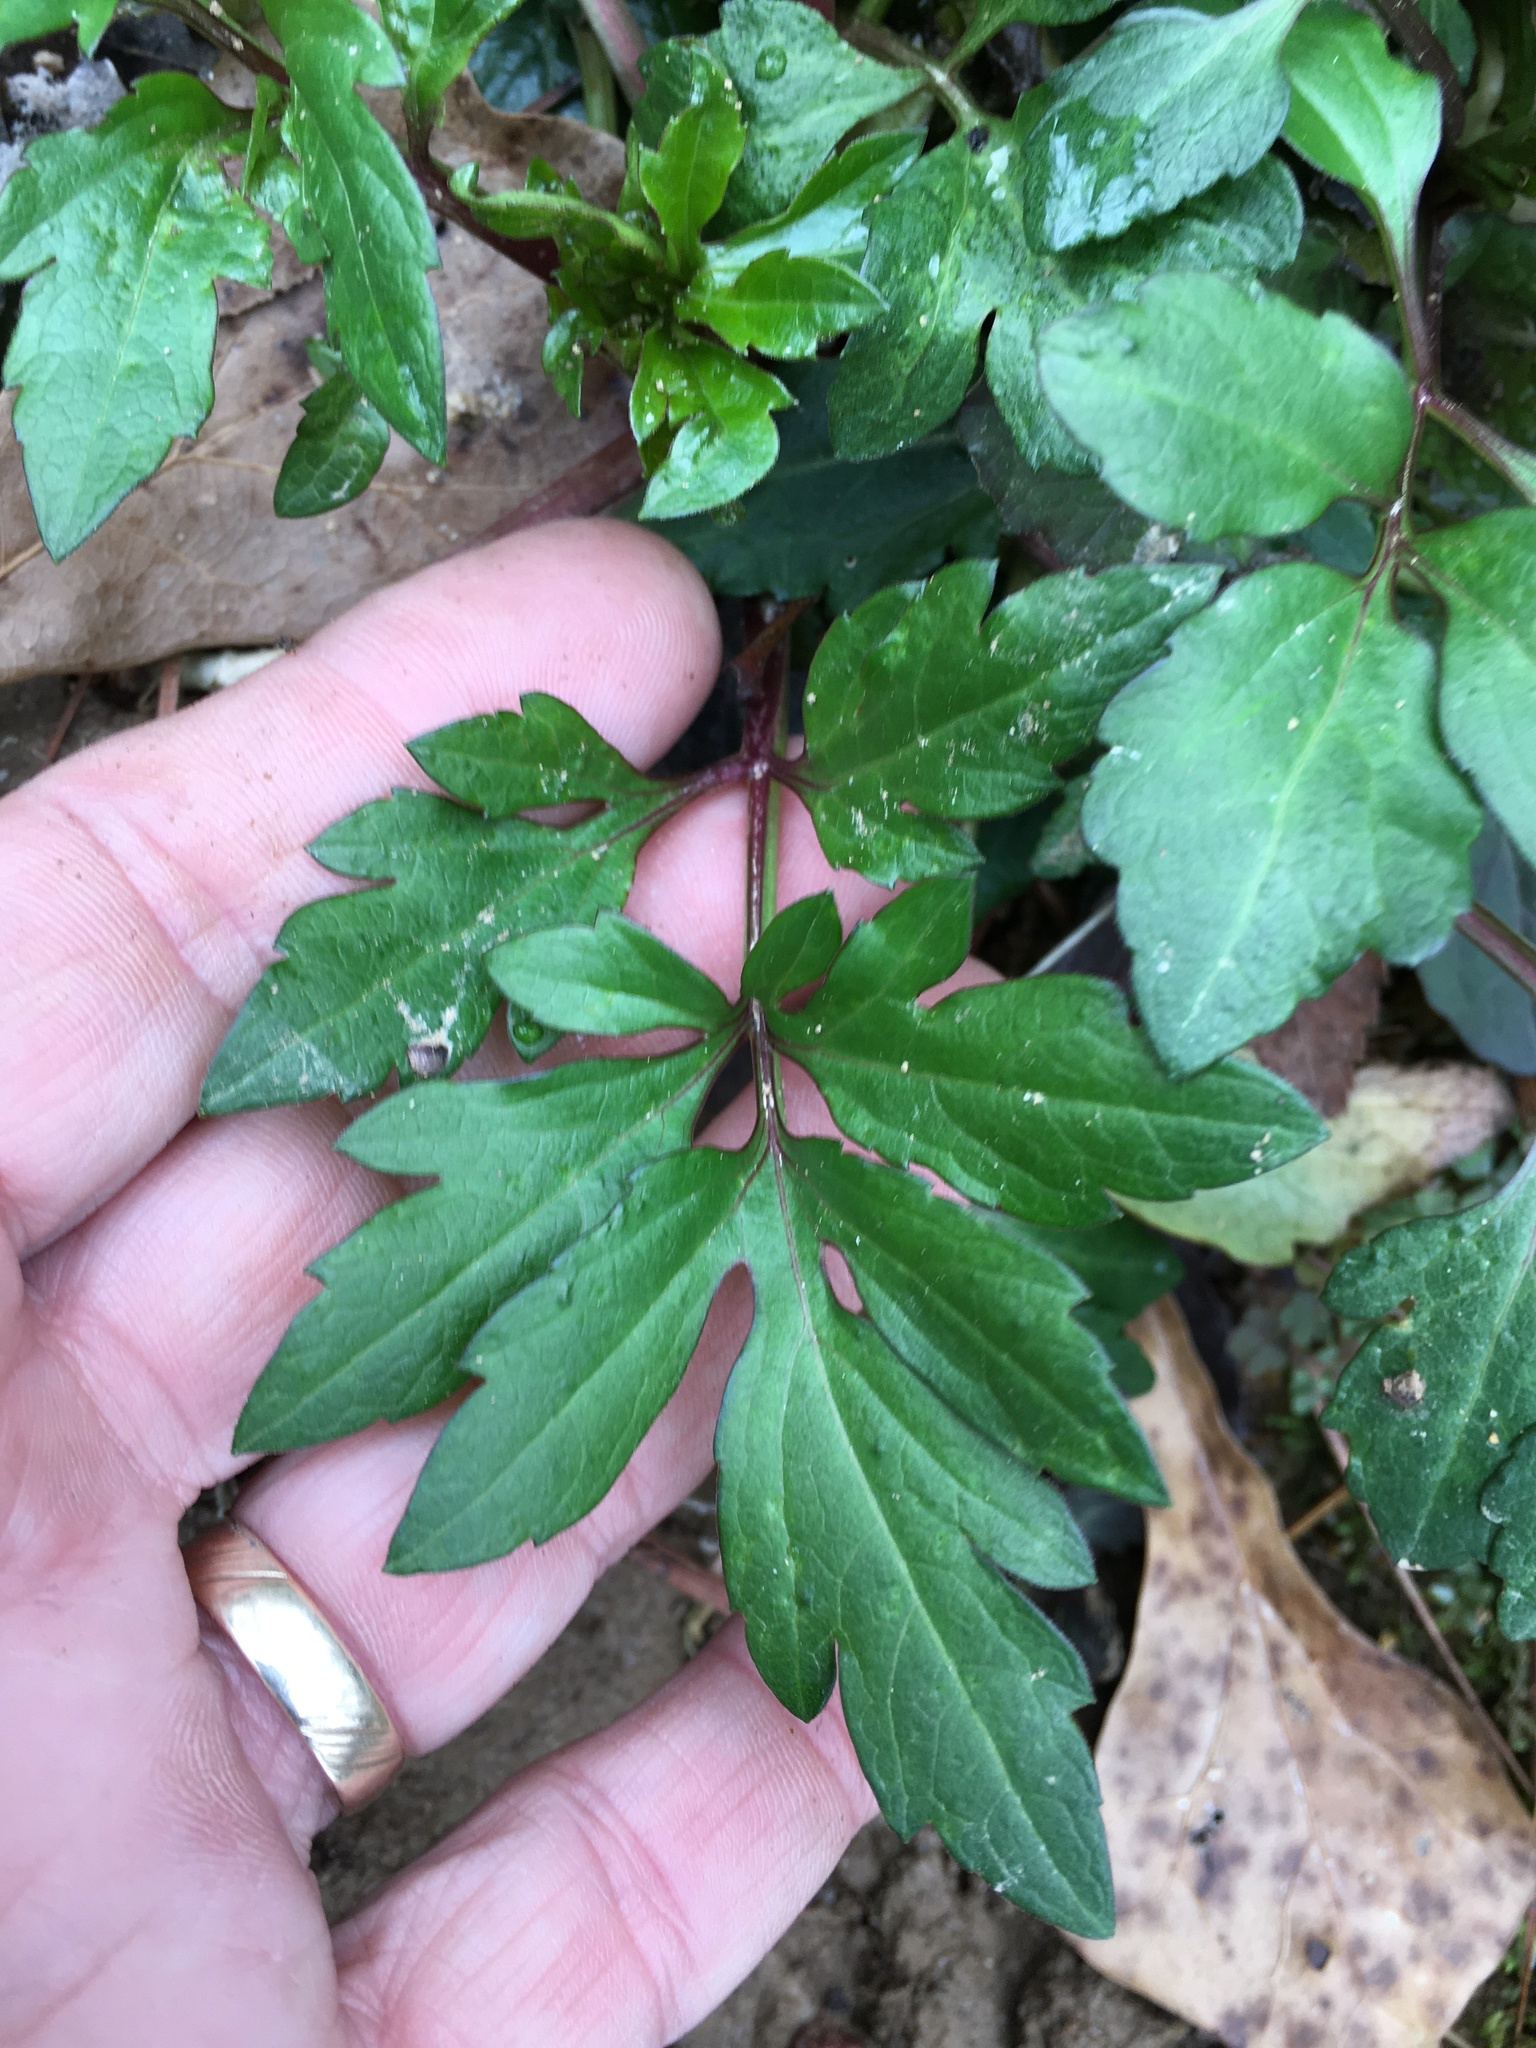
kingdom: Plantae
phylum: Tracheophyta
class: Magnoliopsida
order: Asterales
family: Asteraceae
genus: Rudbeckia
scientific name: Rudbeckia laciniata
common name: Coneflower
